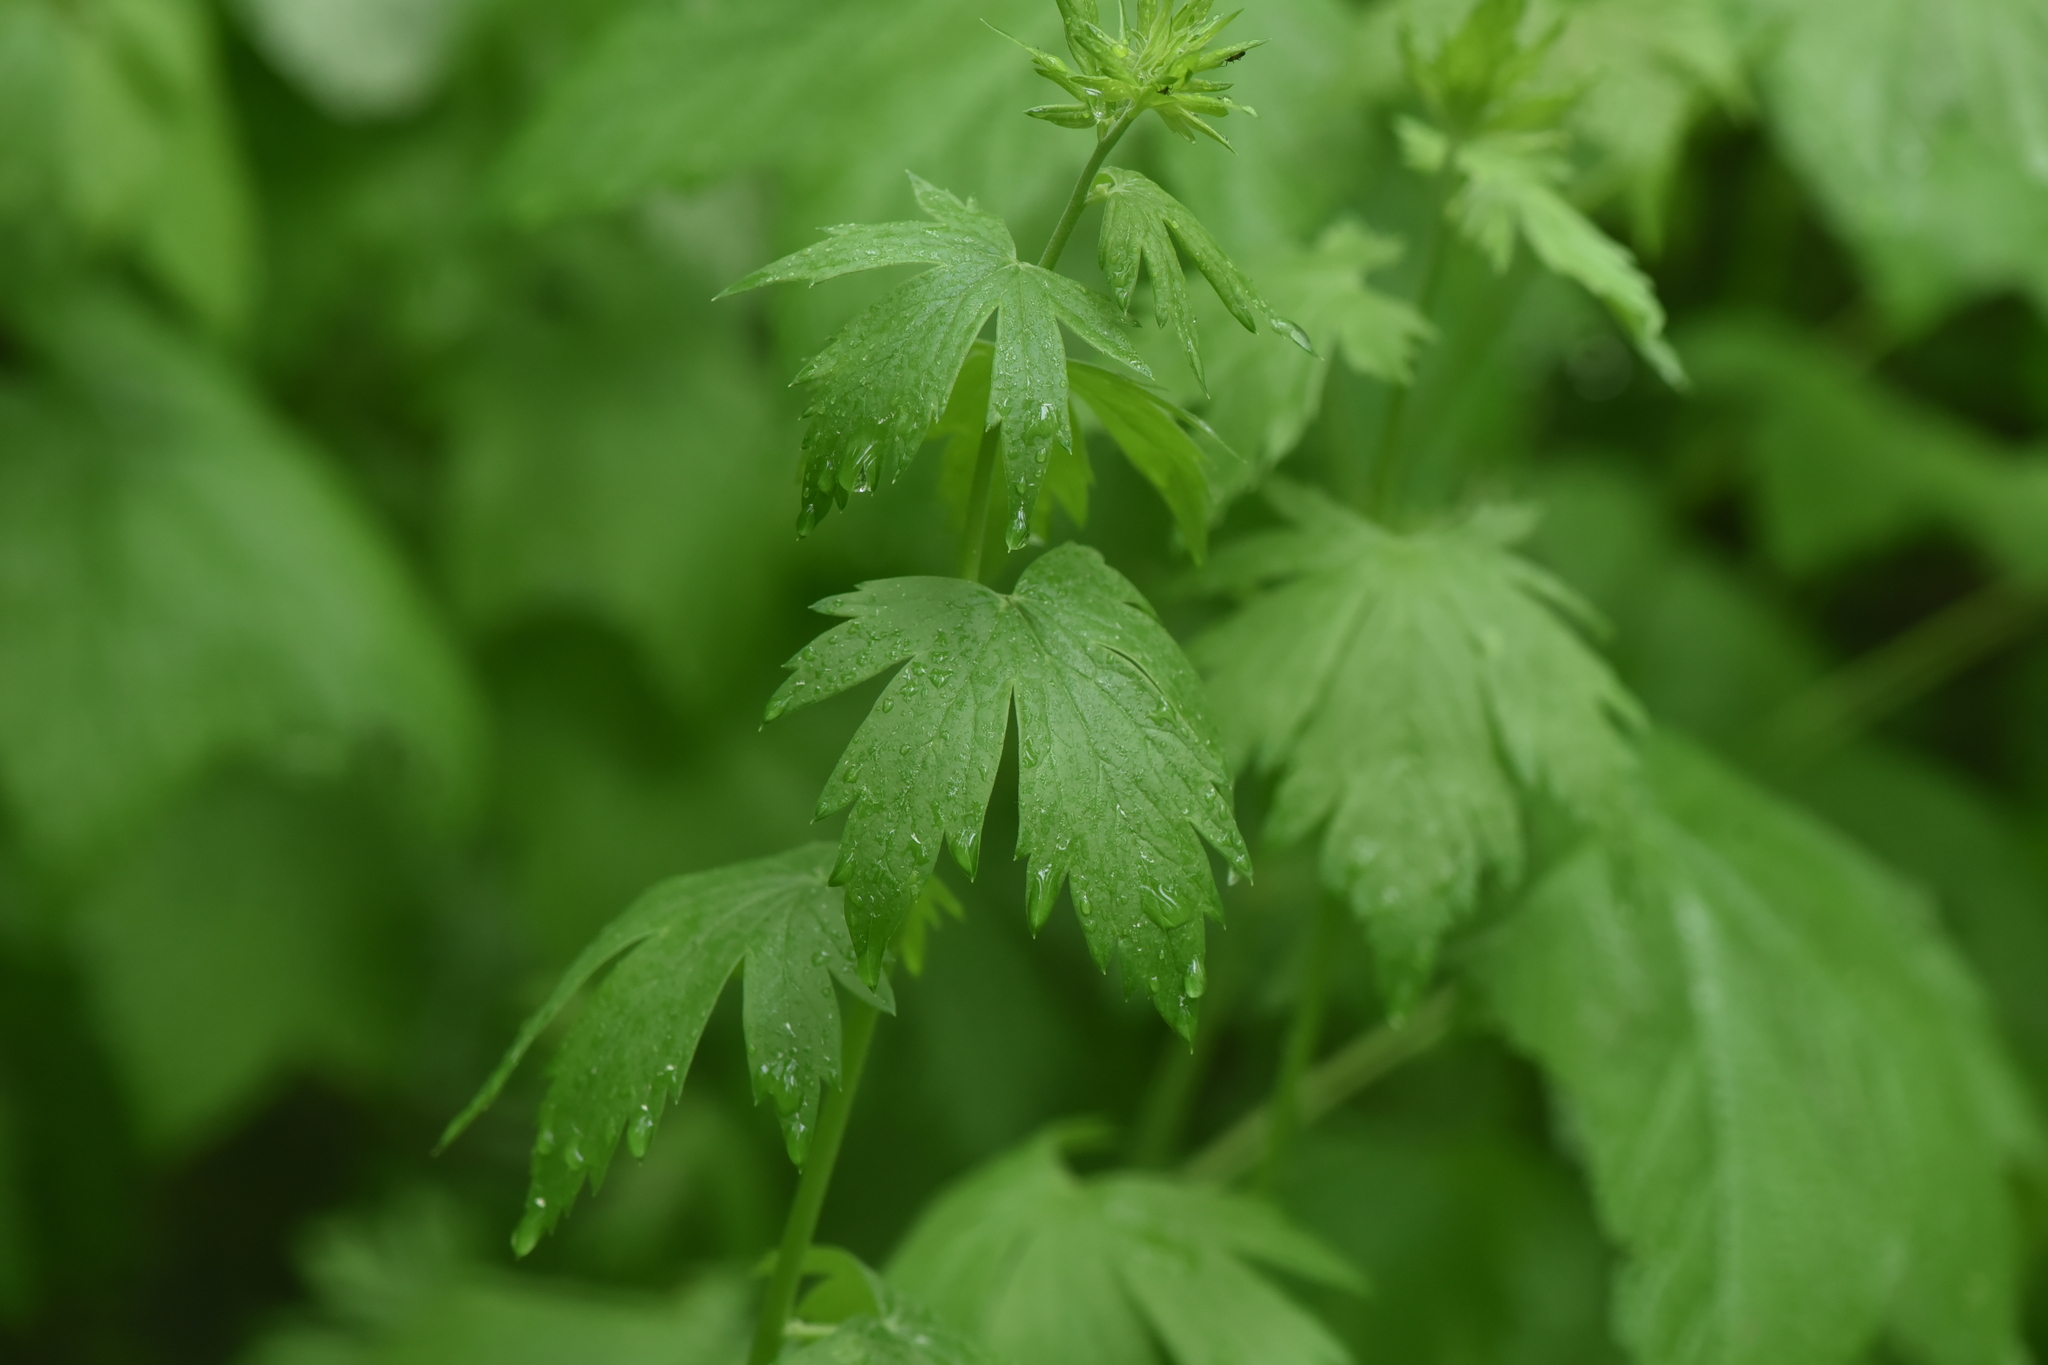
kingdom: Plantae
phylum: Tracheophyta
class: Magnoliopsida
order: Ranunculales
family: Ranunculaceae
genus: Aconitum
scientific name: Aconitum columbianum
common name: Columbia aconite
